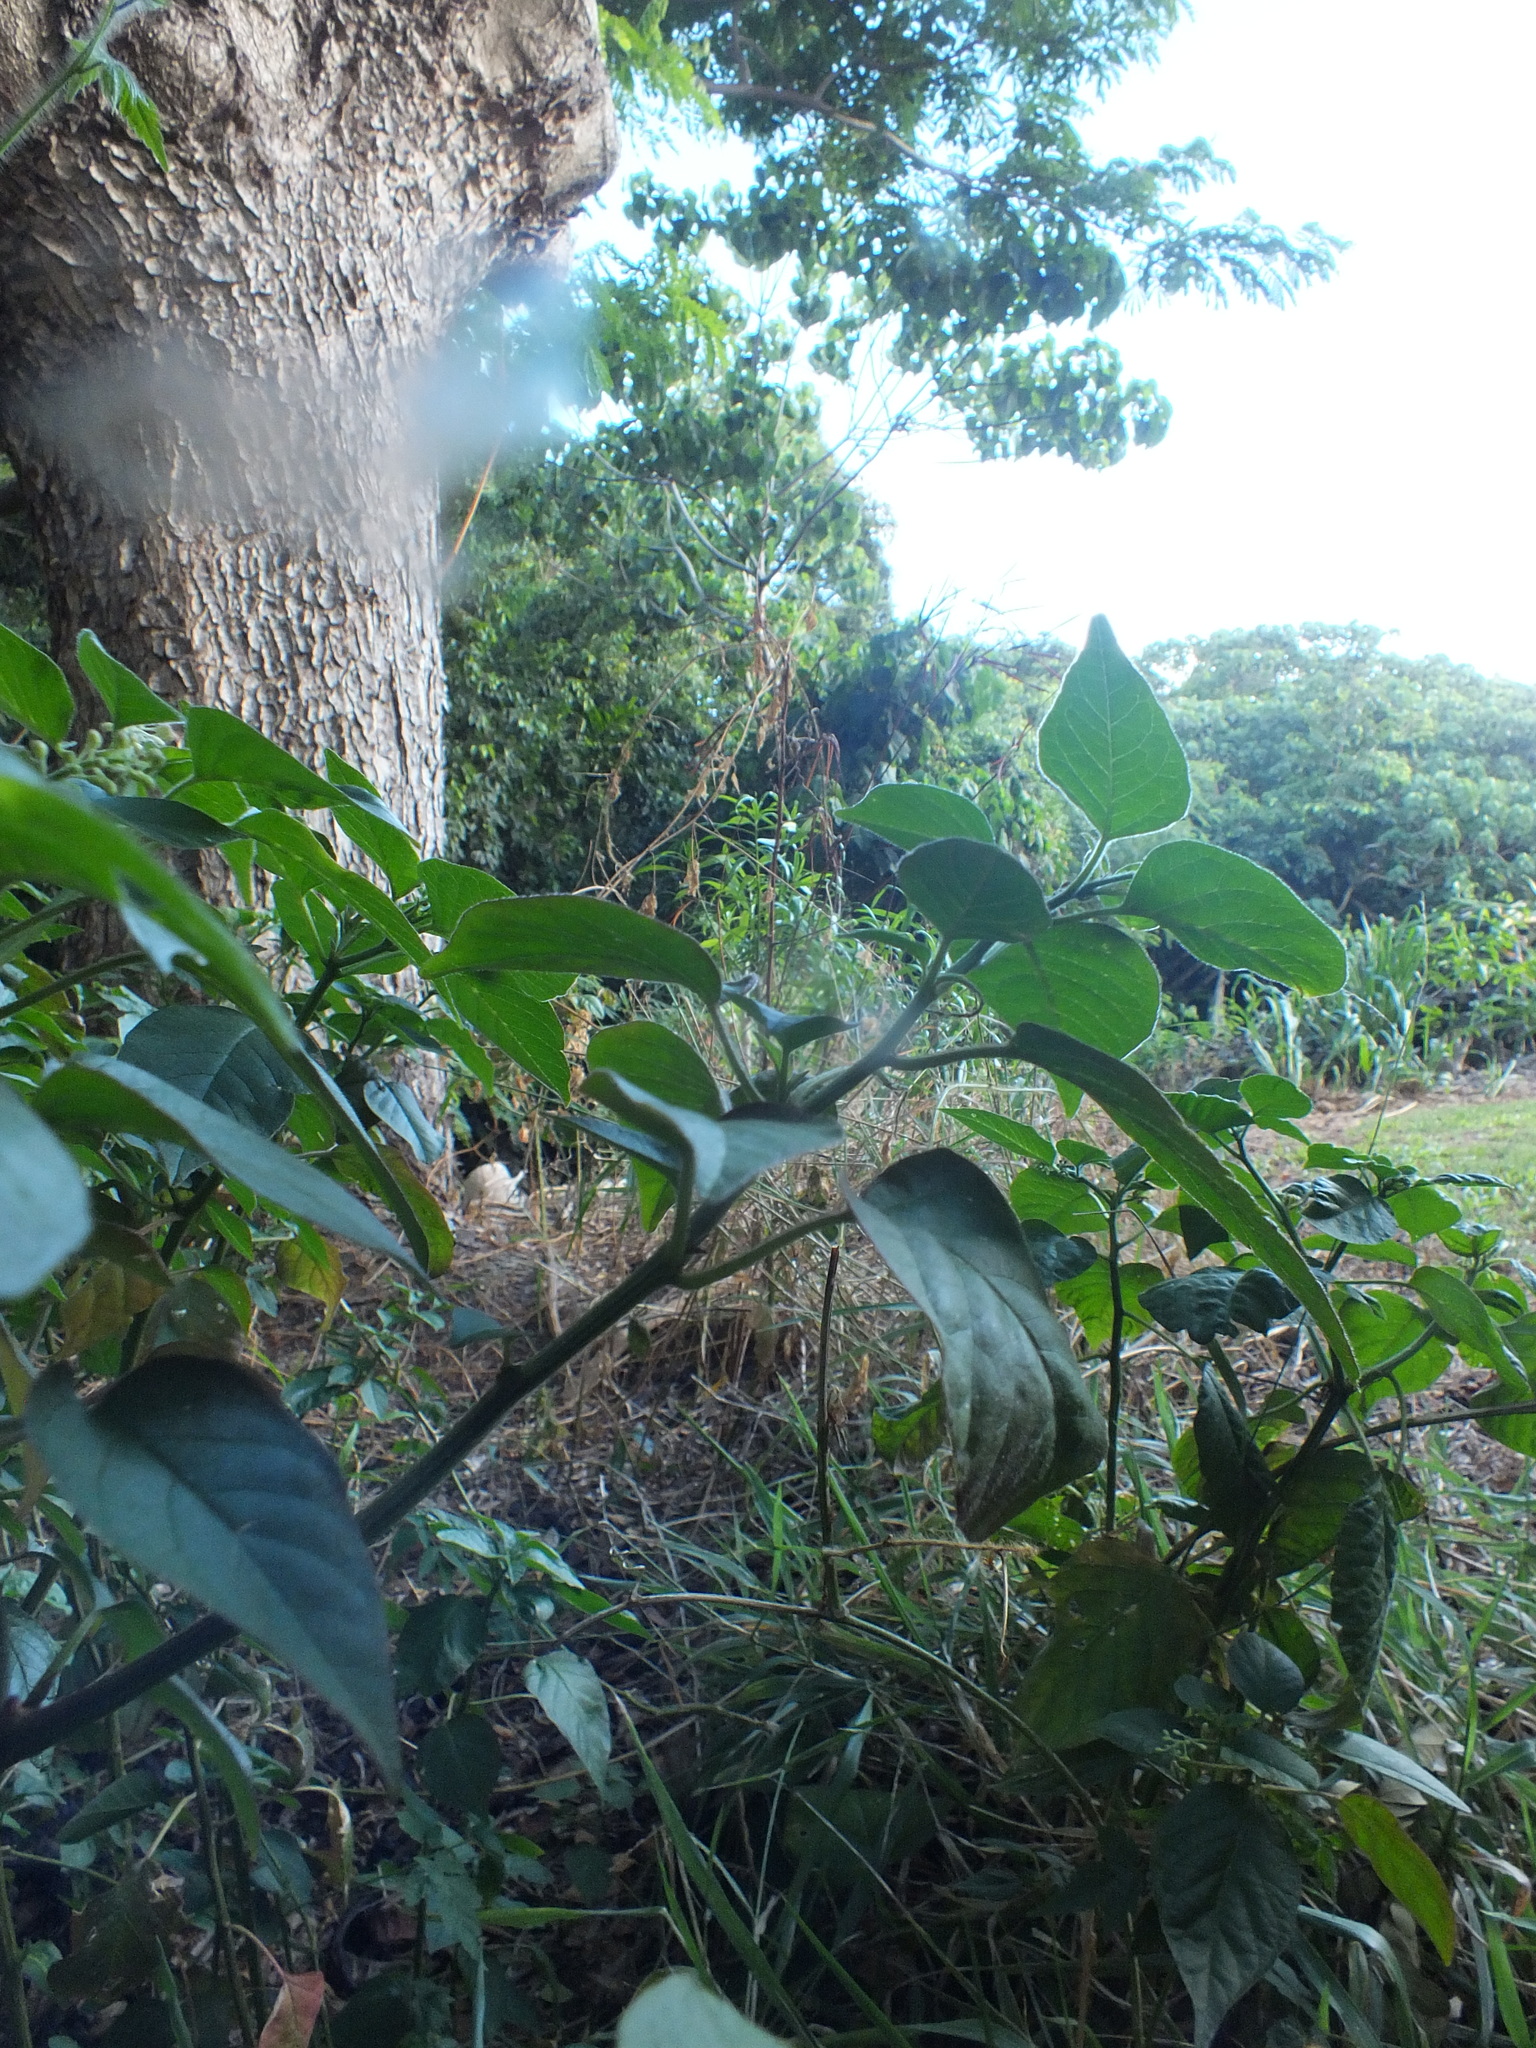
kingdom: Plantae
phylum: Tracheophyta
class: Magnoliopsida
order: Caryophyllales
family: Phytolaccaceae
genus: Rivina
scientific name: Rivina humilis
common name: Rougeplant
